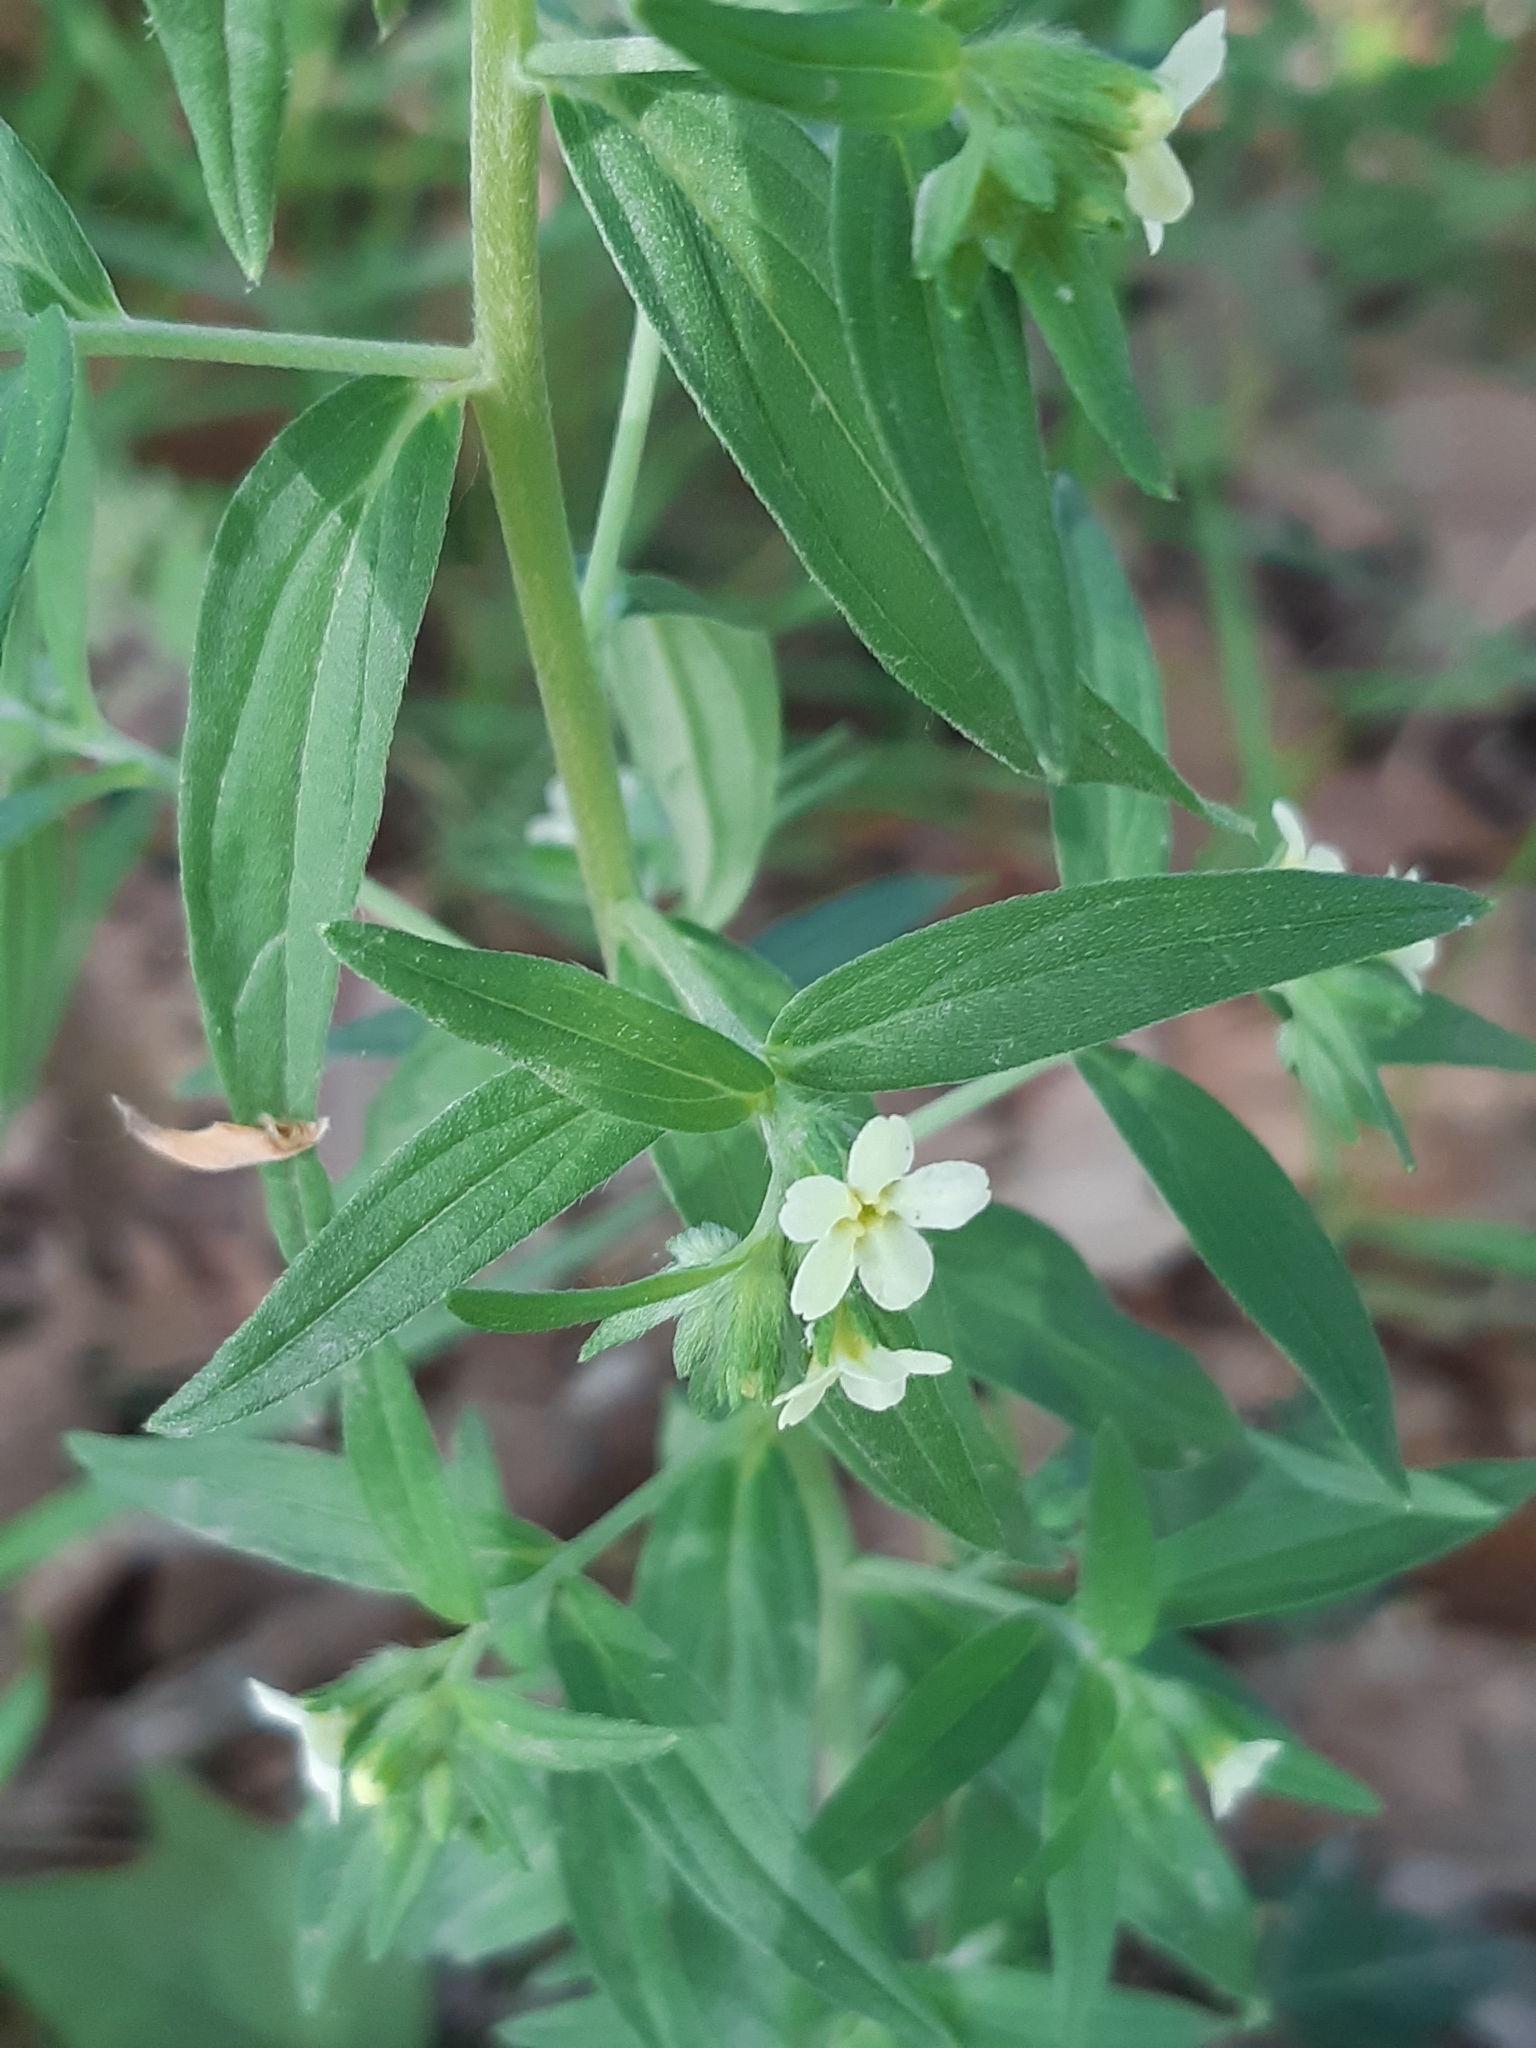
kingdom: Plantae
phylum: Tracheophyta
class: Magnoliopsida
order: Boraginales
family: Boraginaceae
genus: Lithospermum
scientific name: Lithospermum officinale
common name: Common gromwell
